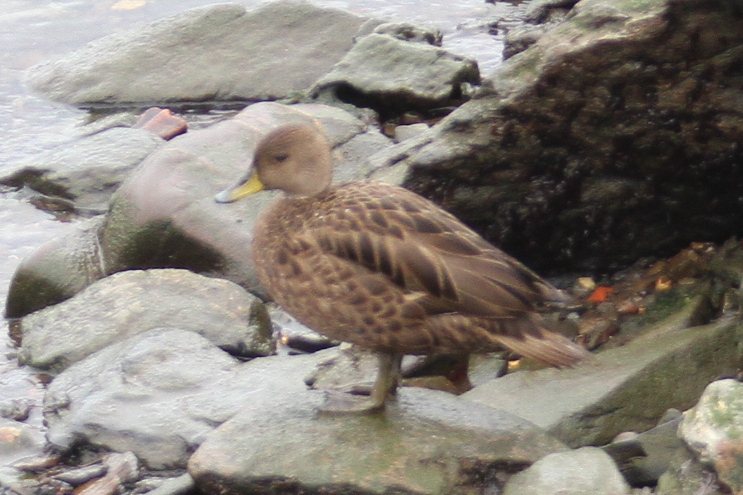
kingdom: Animalia
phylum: Chordata
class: Aves
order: Anseriformes
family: Anatidae
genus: Anas
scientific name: Anas georgica
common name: Yellow-billed pintail
